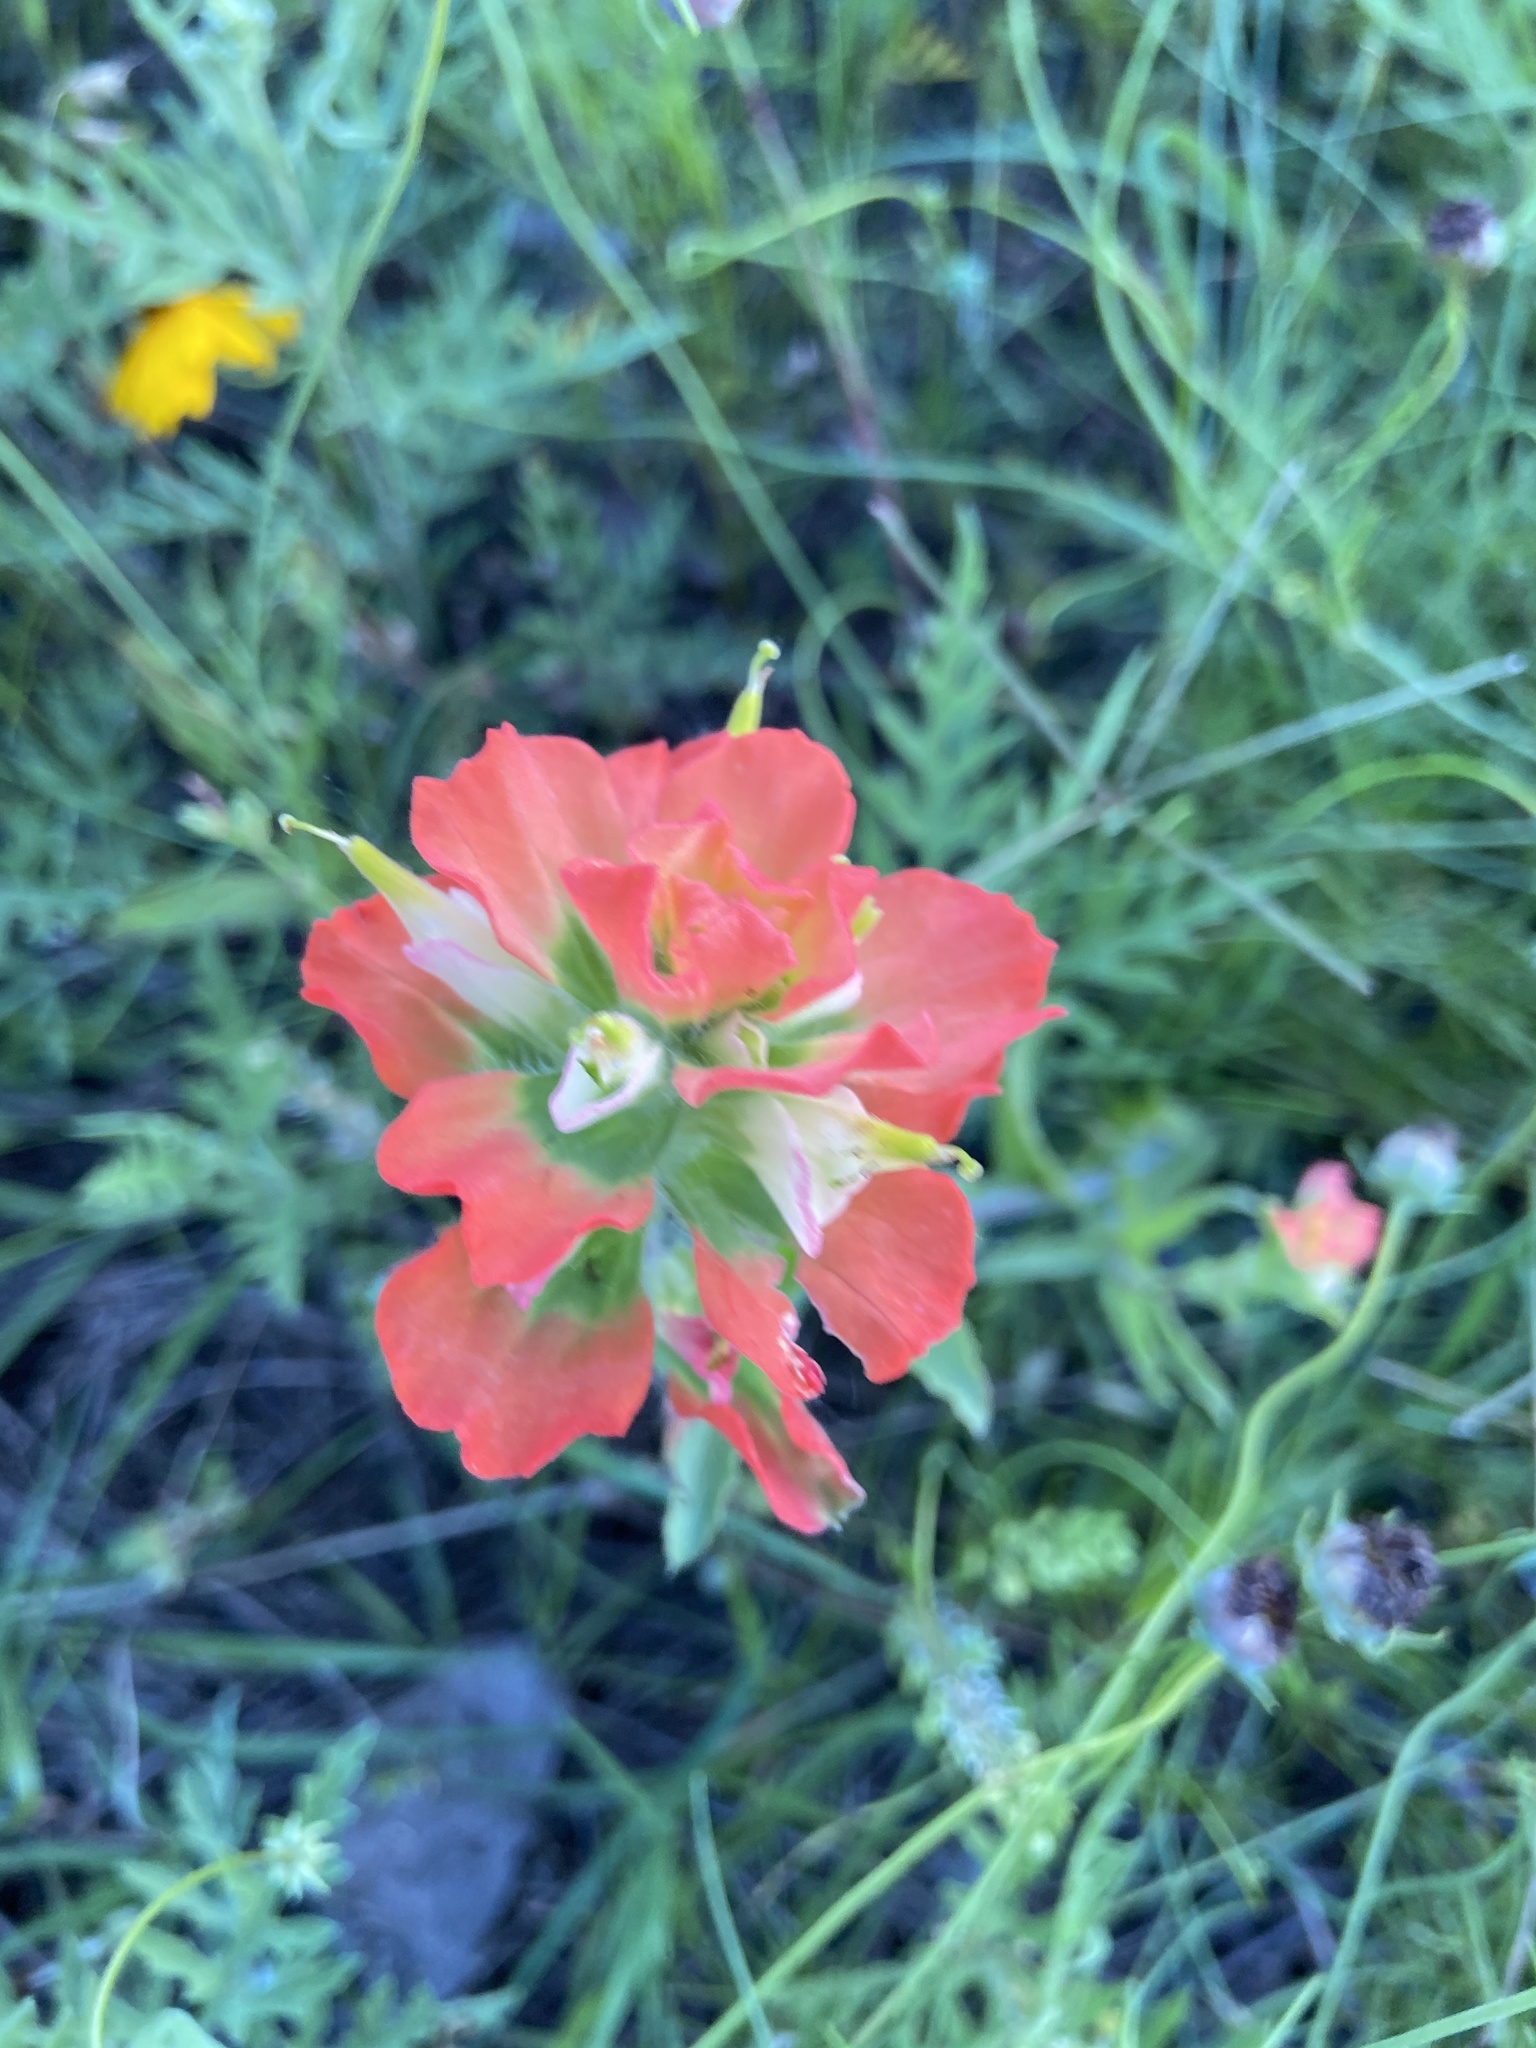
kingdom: Plantae
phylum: Tracheophyta
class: Magnoliopsida
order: Lamiales
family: Orobanchaceae
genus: Castilleja
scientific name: Castilleja indivisa
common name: Texas paintbrush
